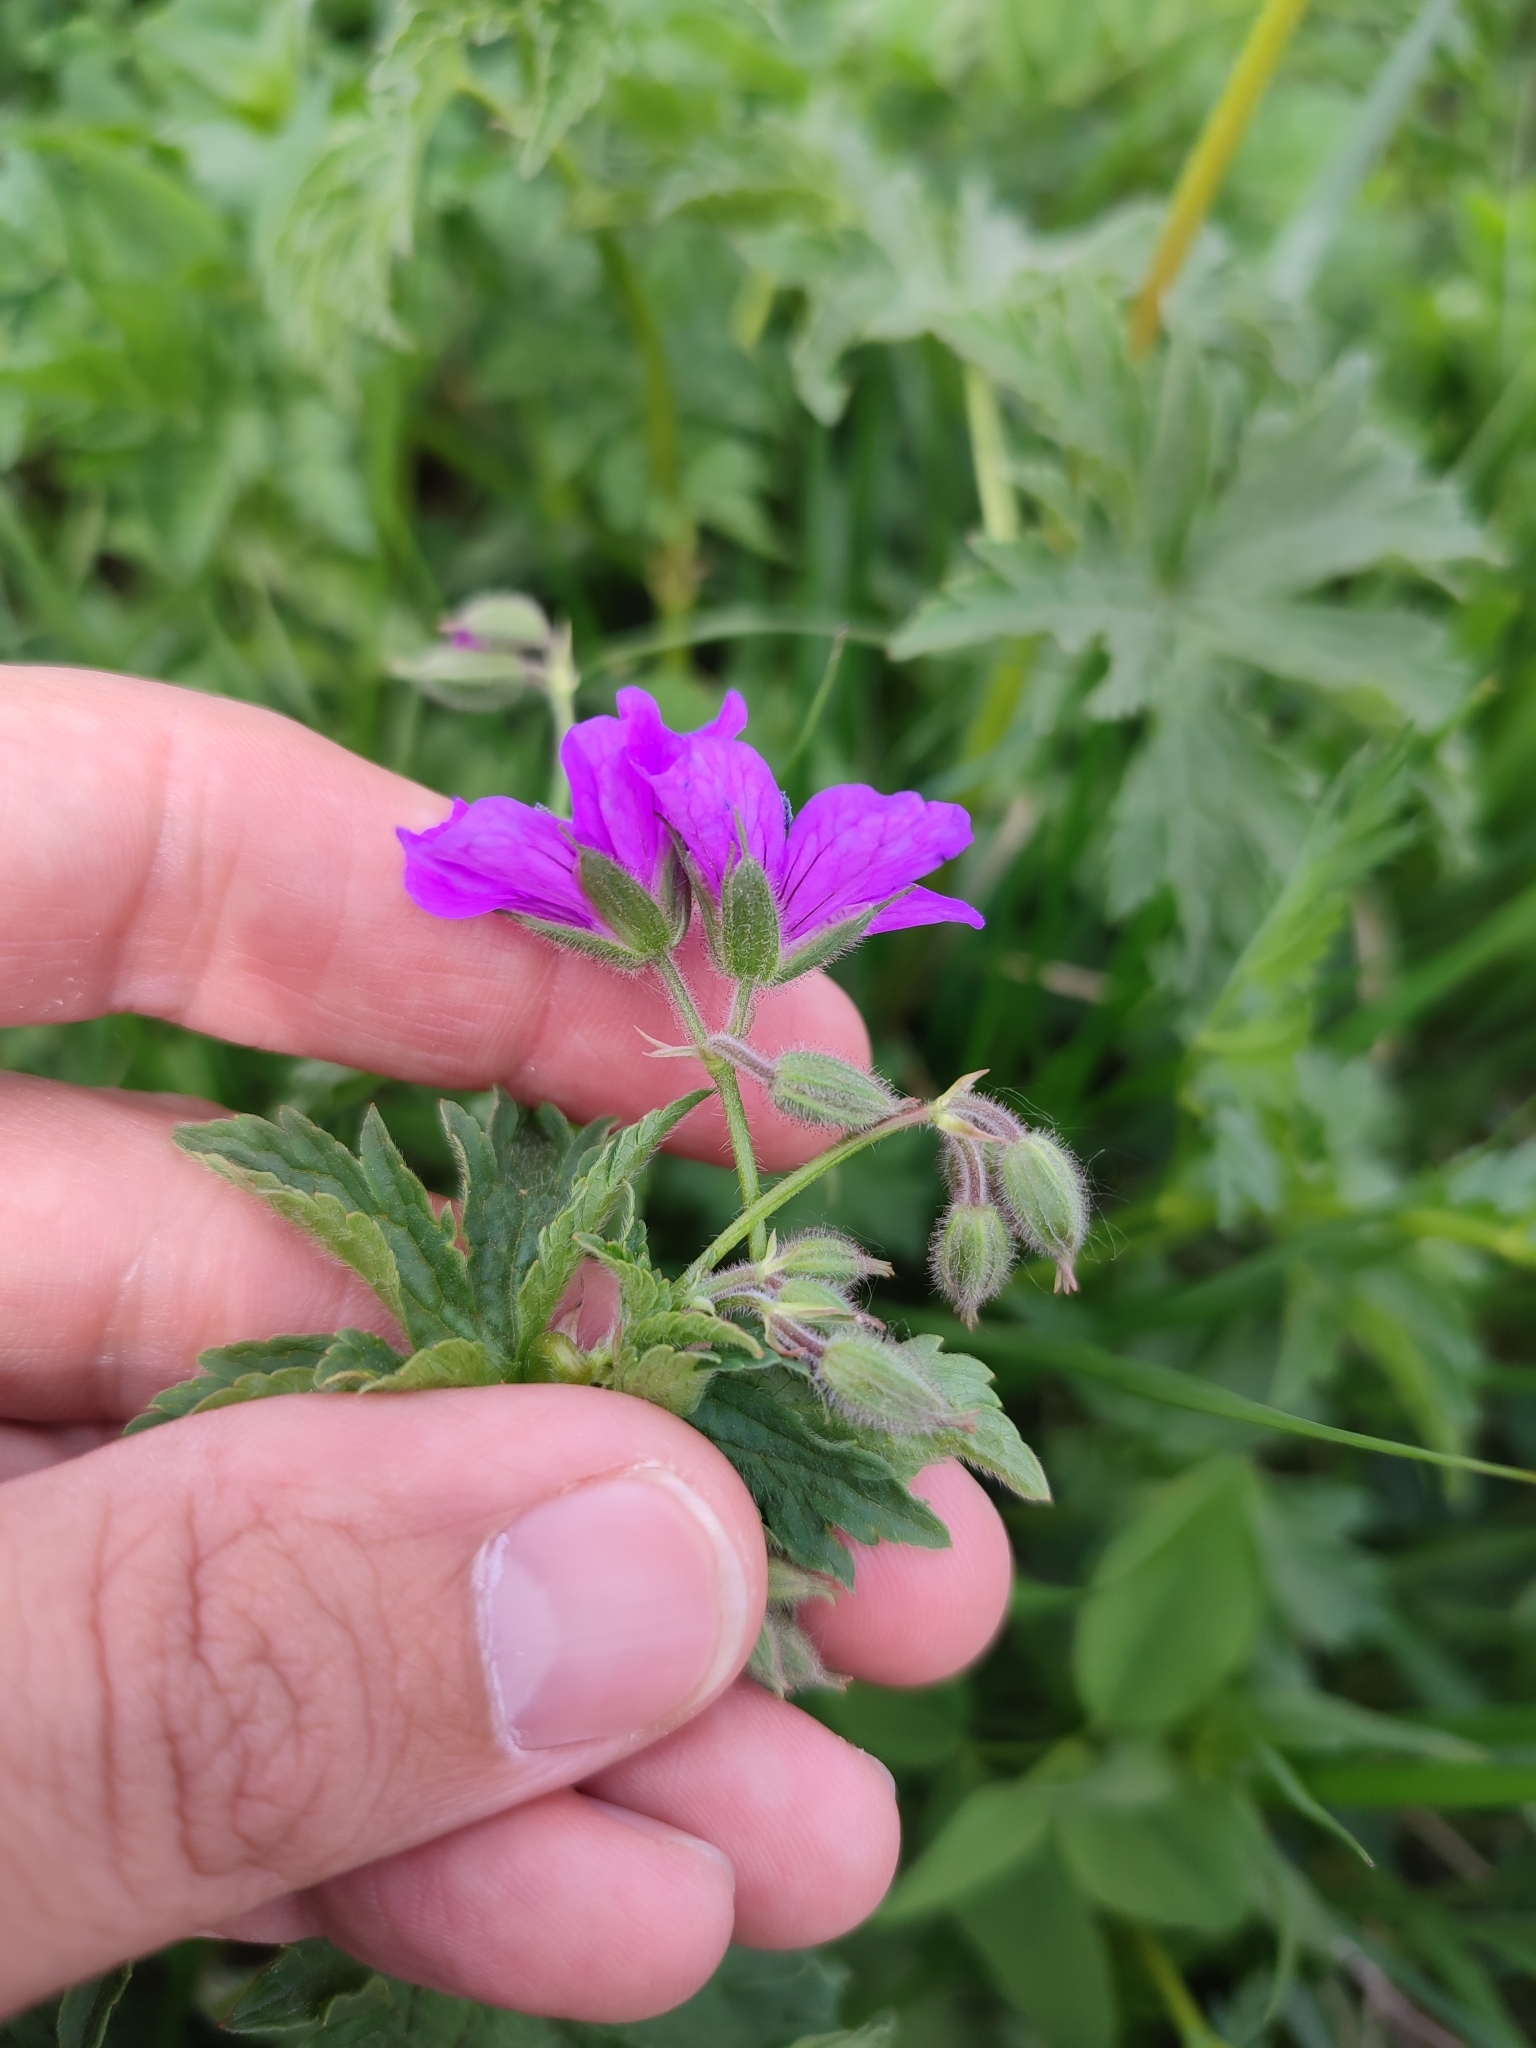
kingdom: Plantae
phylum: Tracheophyta
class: Magnoliopsida
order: Geraniales
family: Geraniaceae
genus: Geranium
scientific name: Geranium sylvaticum
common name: Wood crane's-bill
